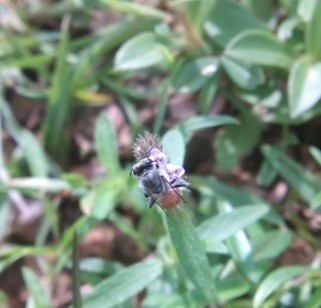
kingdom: Animalia
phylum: Arthropoda
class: Insecta
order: Hymenoptera
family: Apidae
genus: Apis
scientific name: Apis florea
